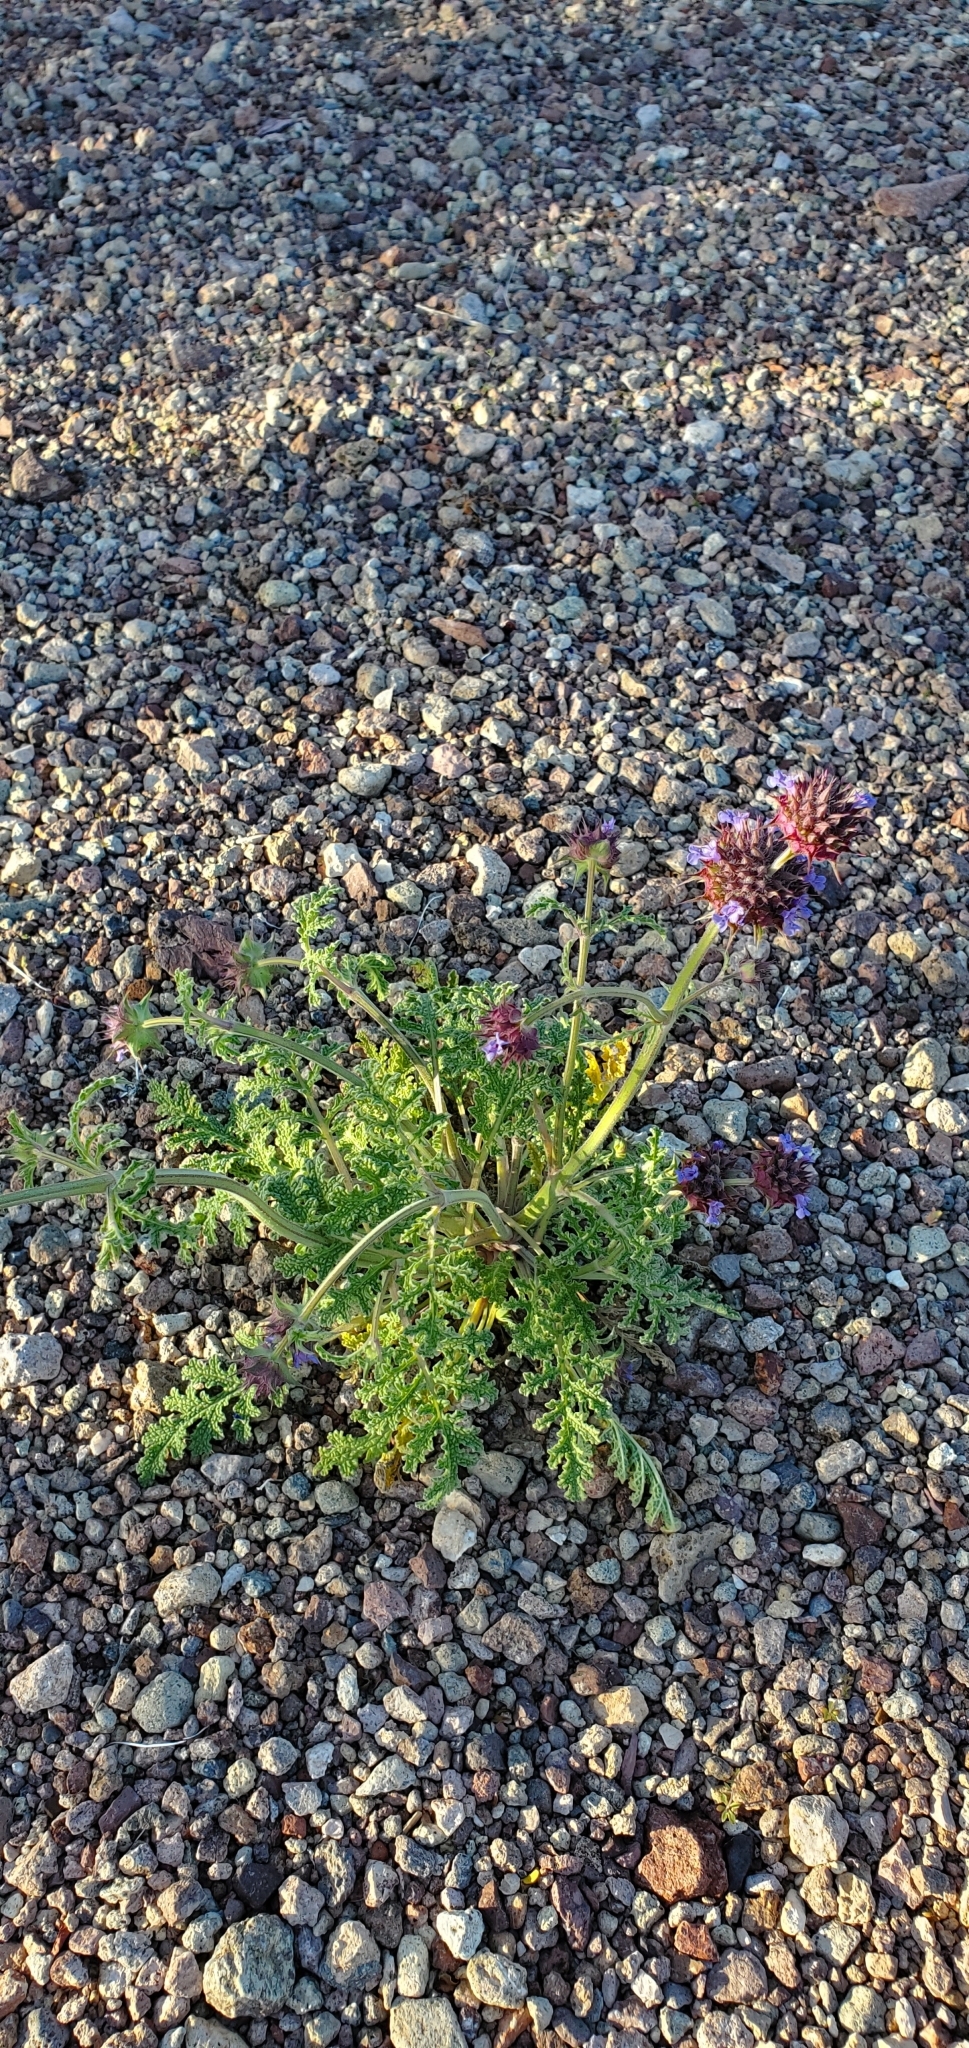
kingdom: Plantae
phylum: Tracheophyta
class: Magnoliopsida
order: Lamiales
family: Lamiaceae
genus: Salvia
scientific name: Salvia columbariae
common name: Chia
